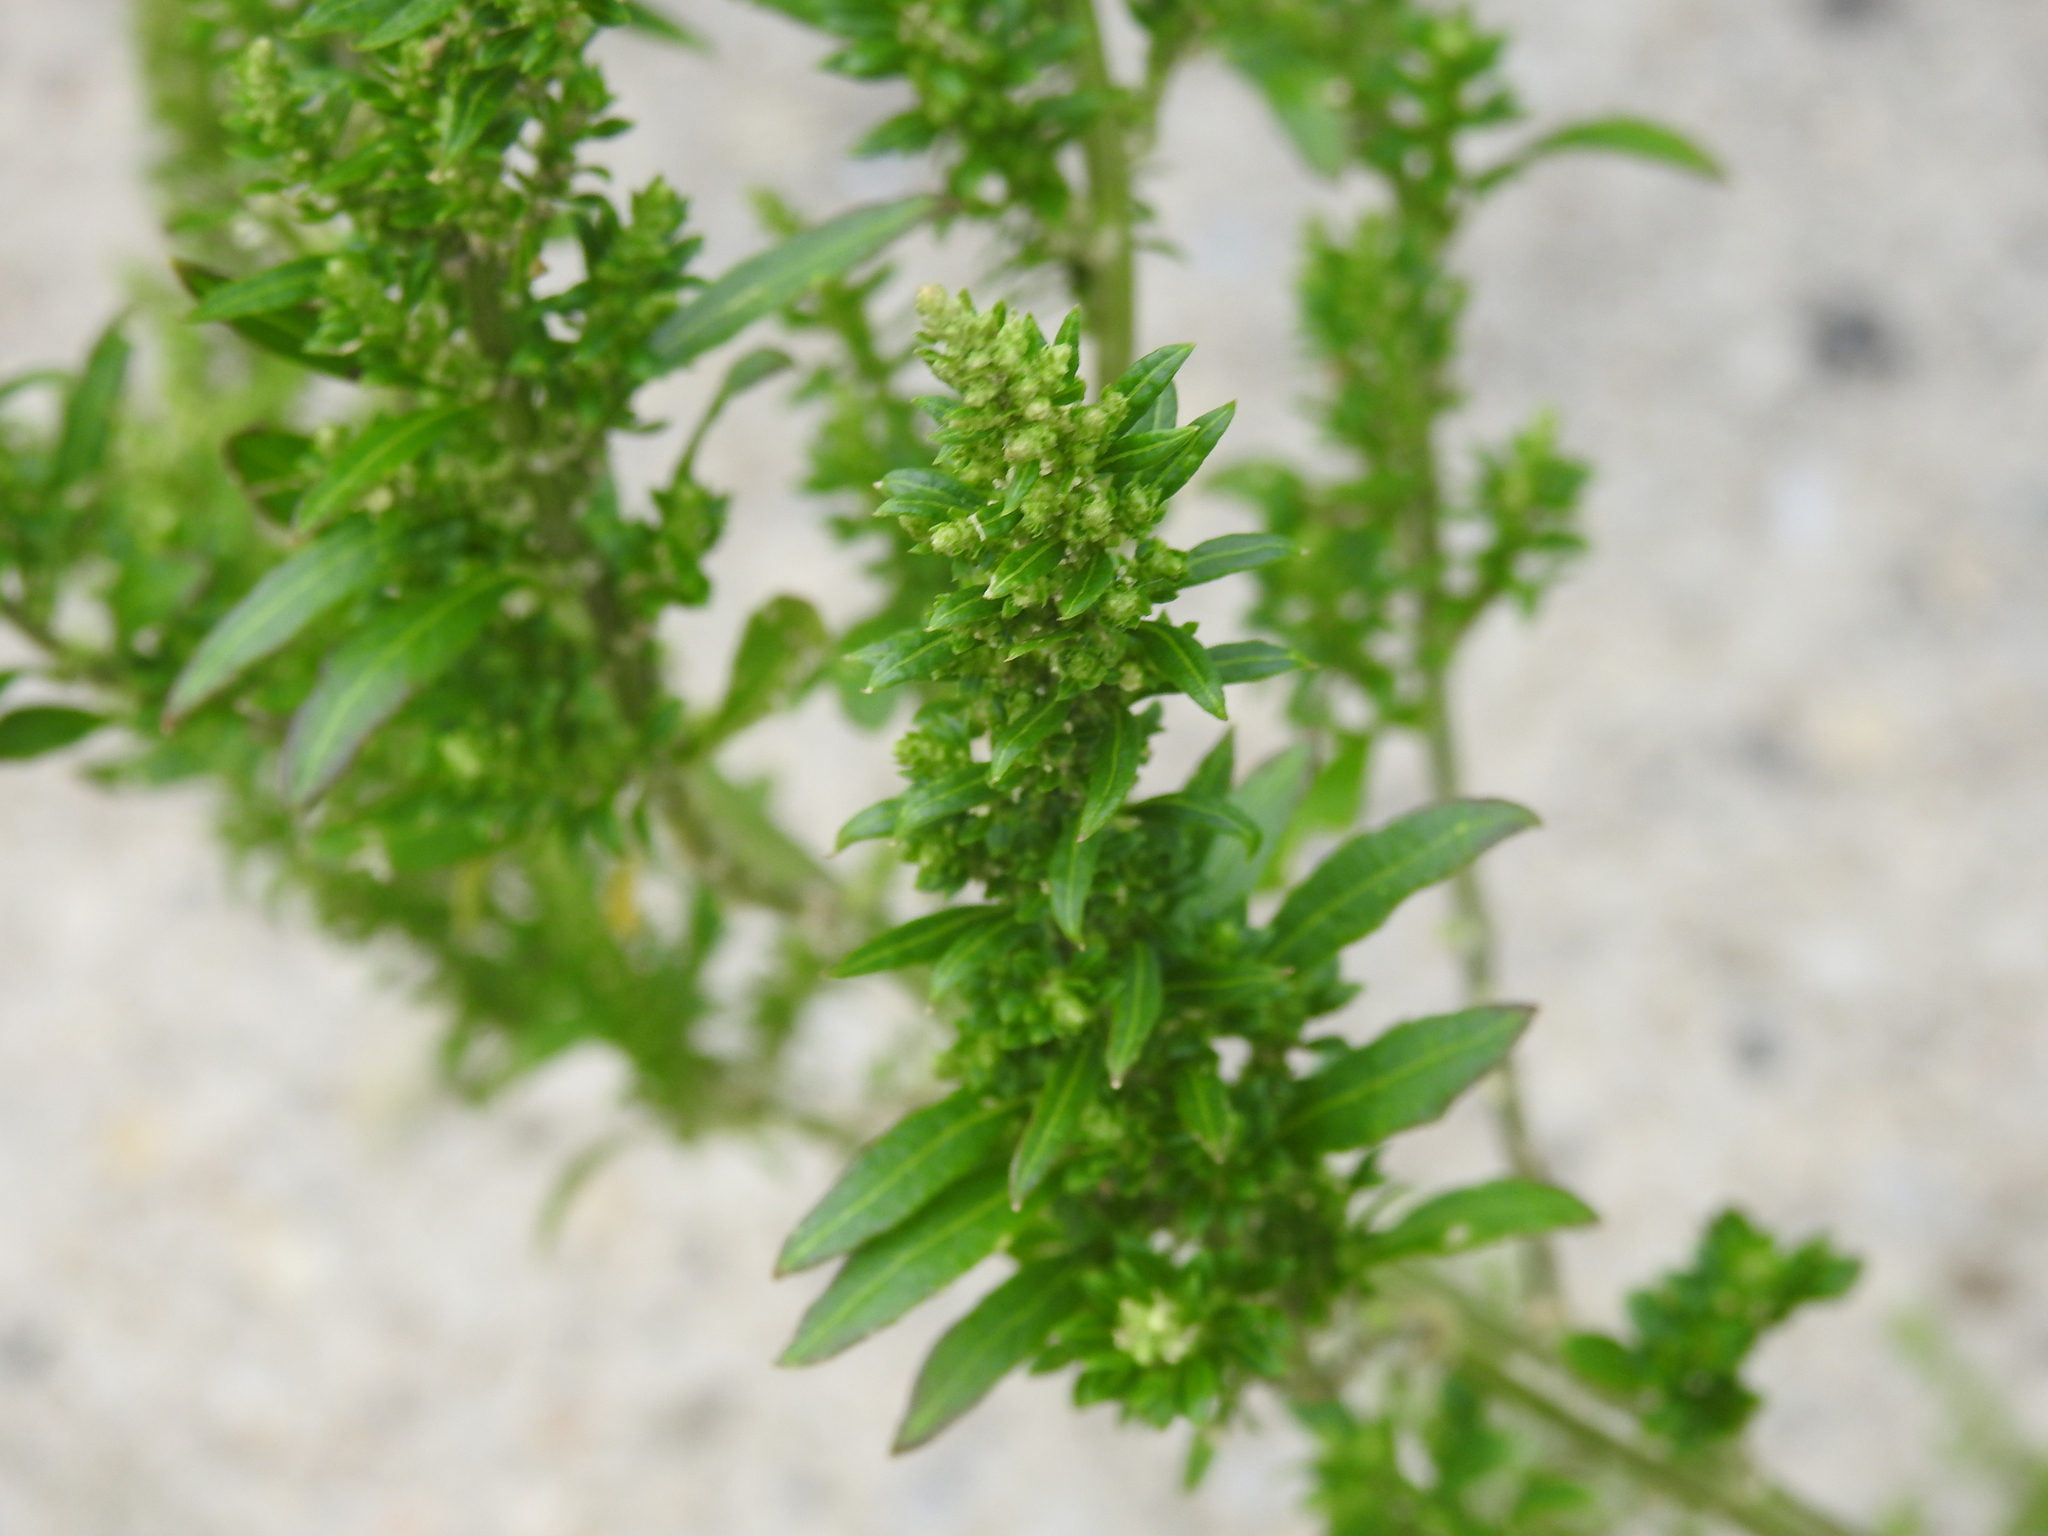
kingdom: Plantae
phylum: Tracheophyta
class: Magnoliopsida
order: Rosales
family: Urticaceae
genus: Pilea
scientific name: Pilea microphylla
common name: Artillery-plant
